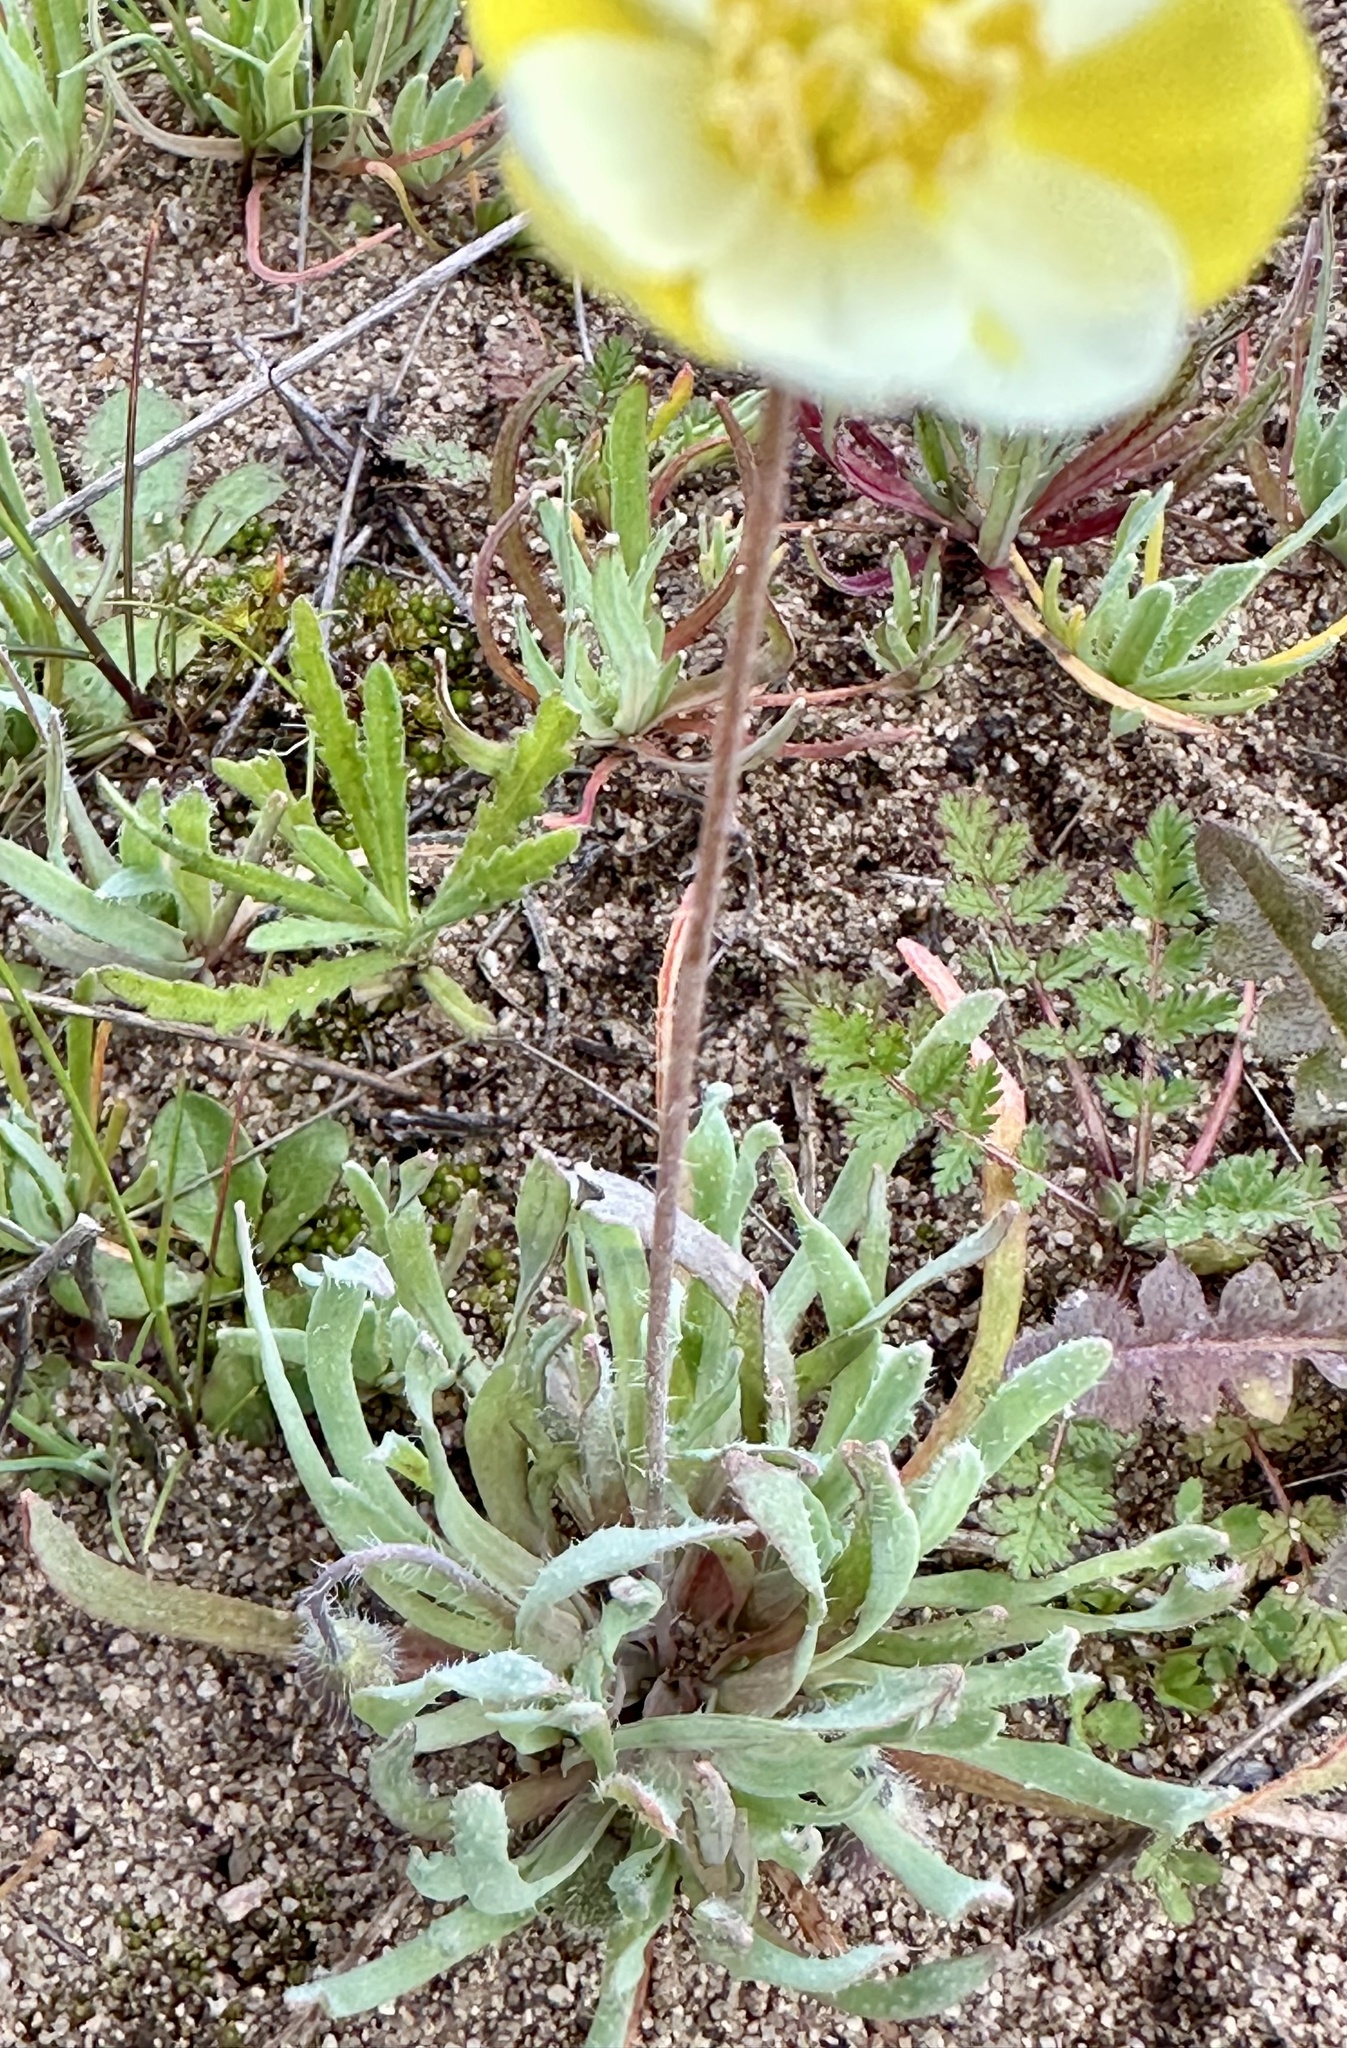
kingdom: Plantae
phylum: Tracheophyta
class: Magnoliopsida
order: Ranunculales
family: Papaveraceae
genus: Platystigma
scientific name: Platystigma lineare
